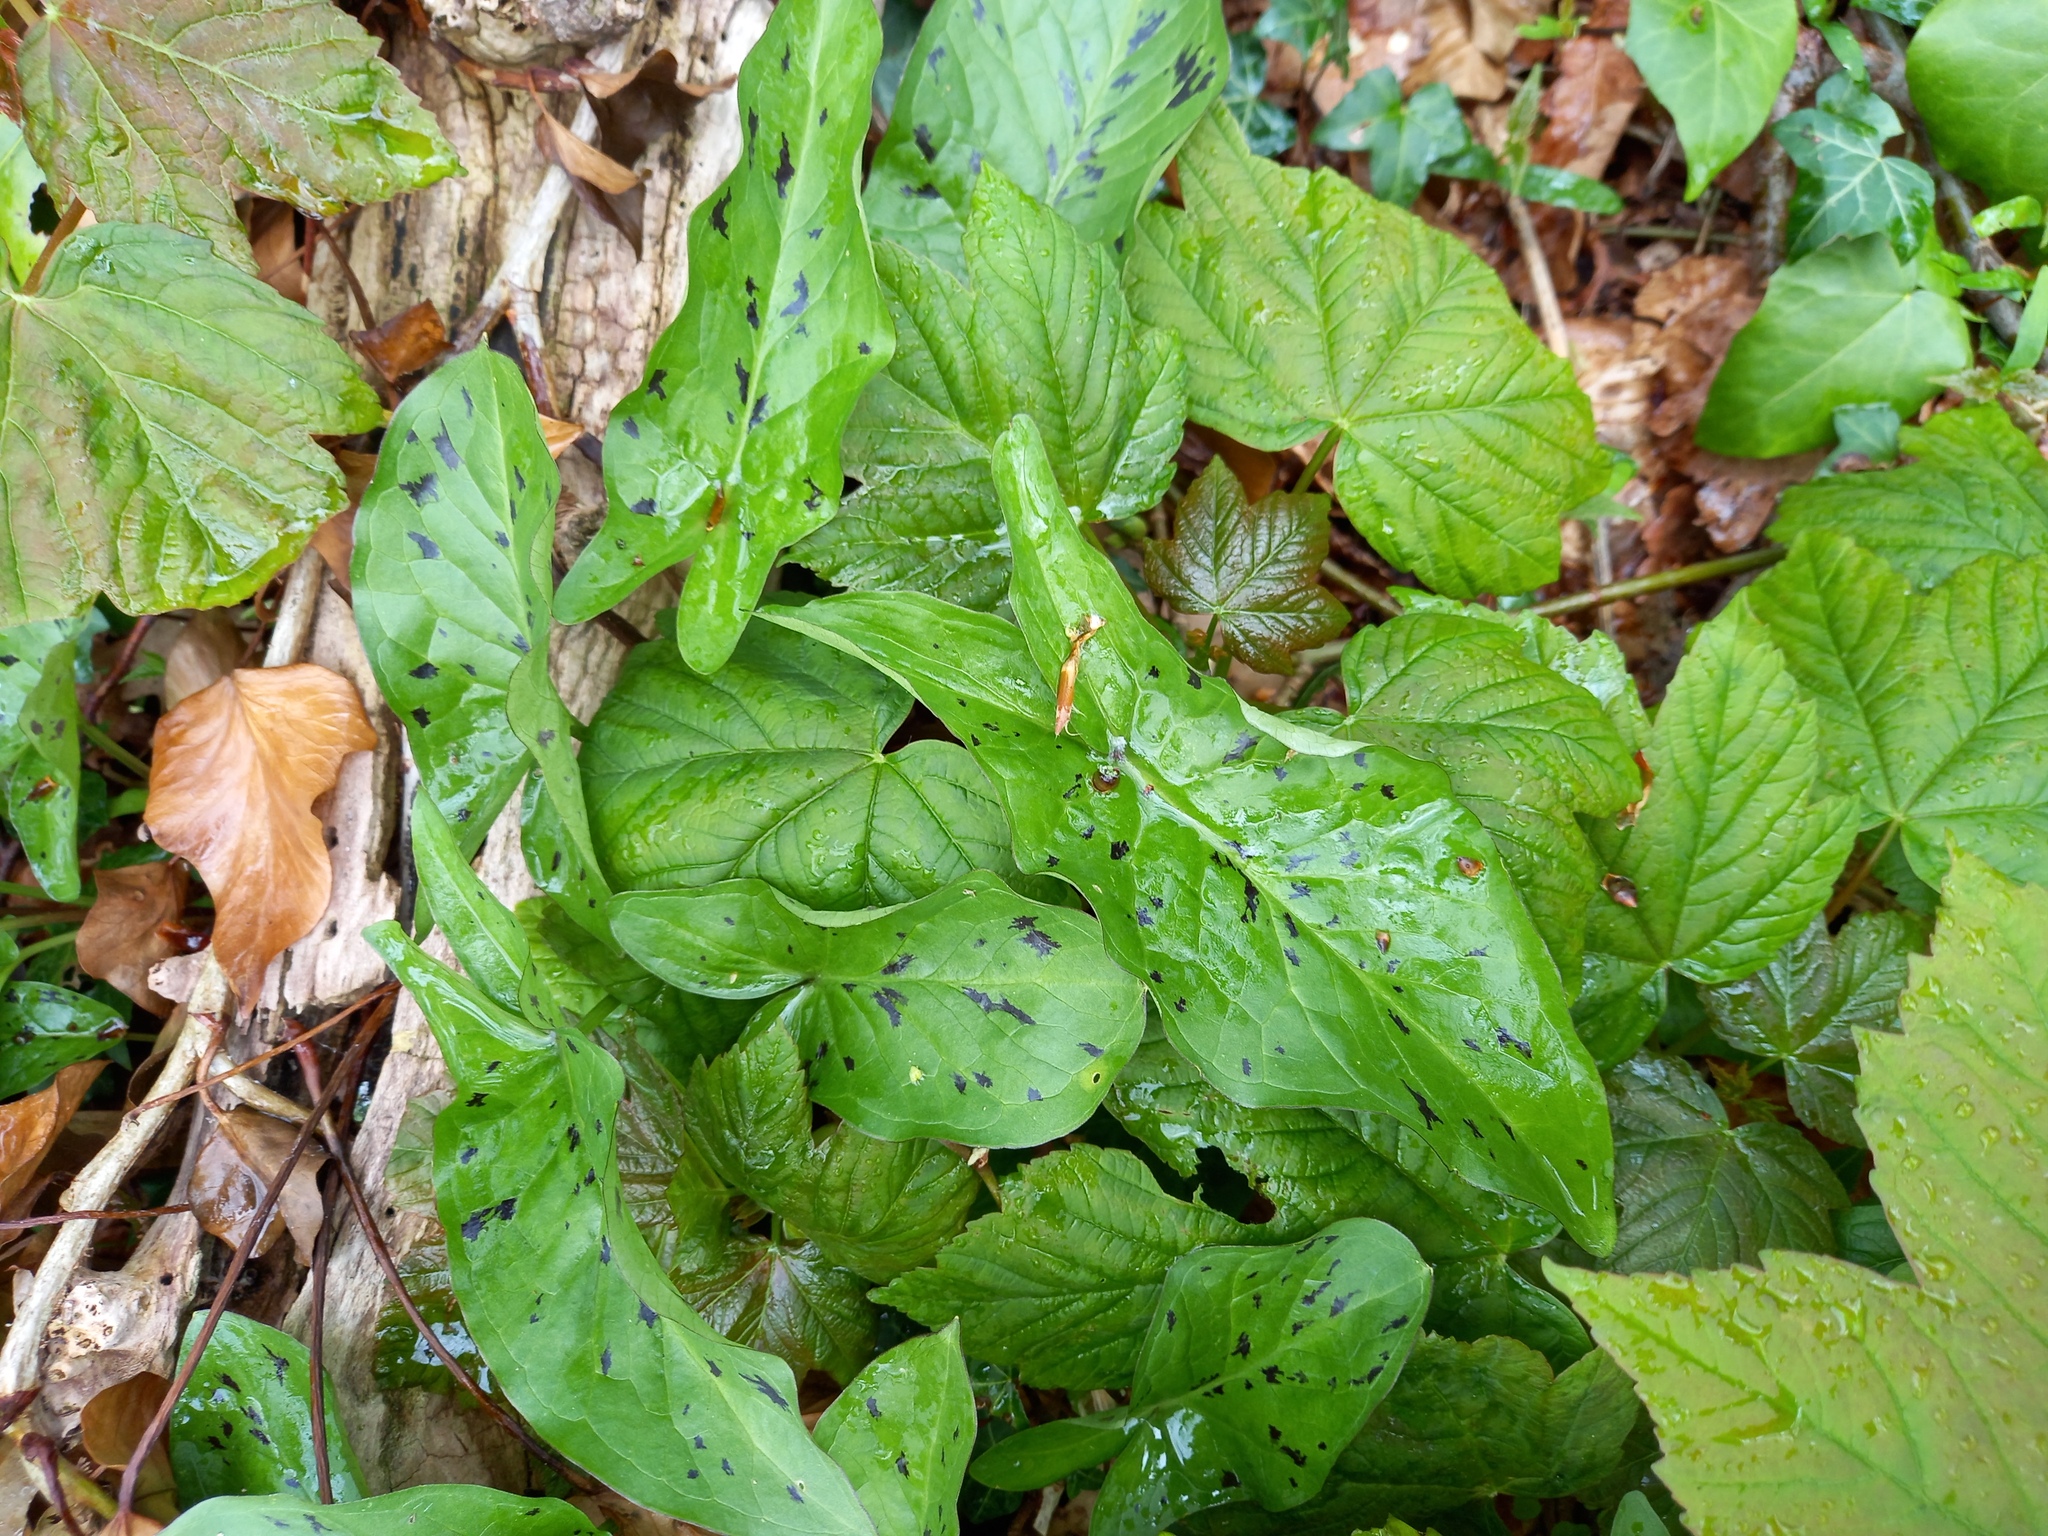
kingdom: Plantae
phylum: Tracheophyta
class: Liliopsida
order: Alismatales
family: Araceae
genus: Arum
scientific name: Arum maculatum
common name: Lords-and-ladies
